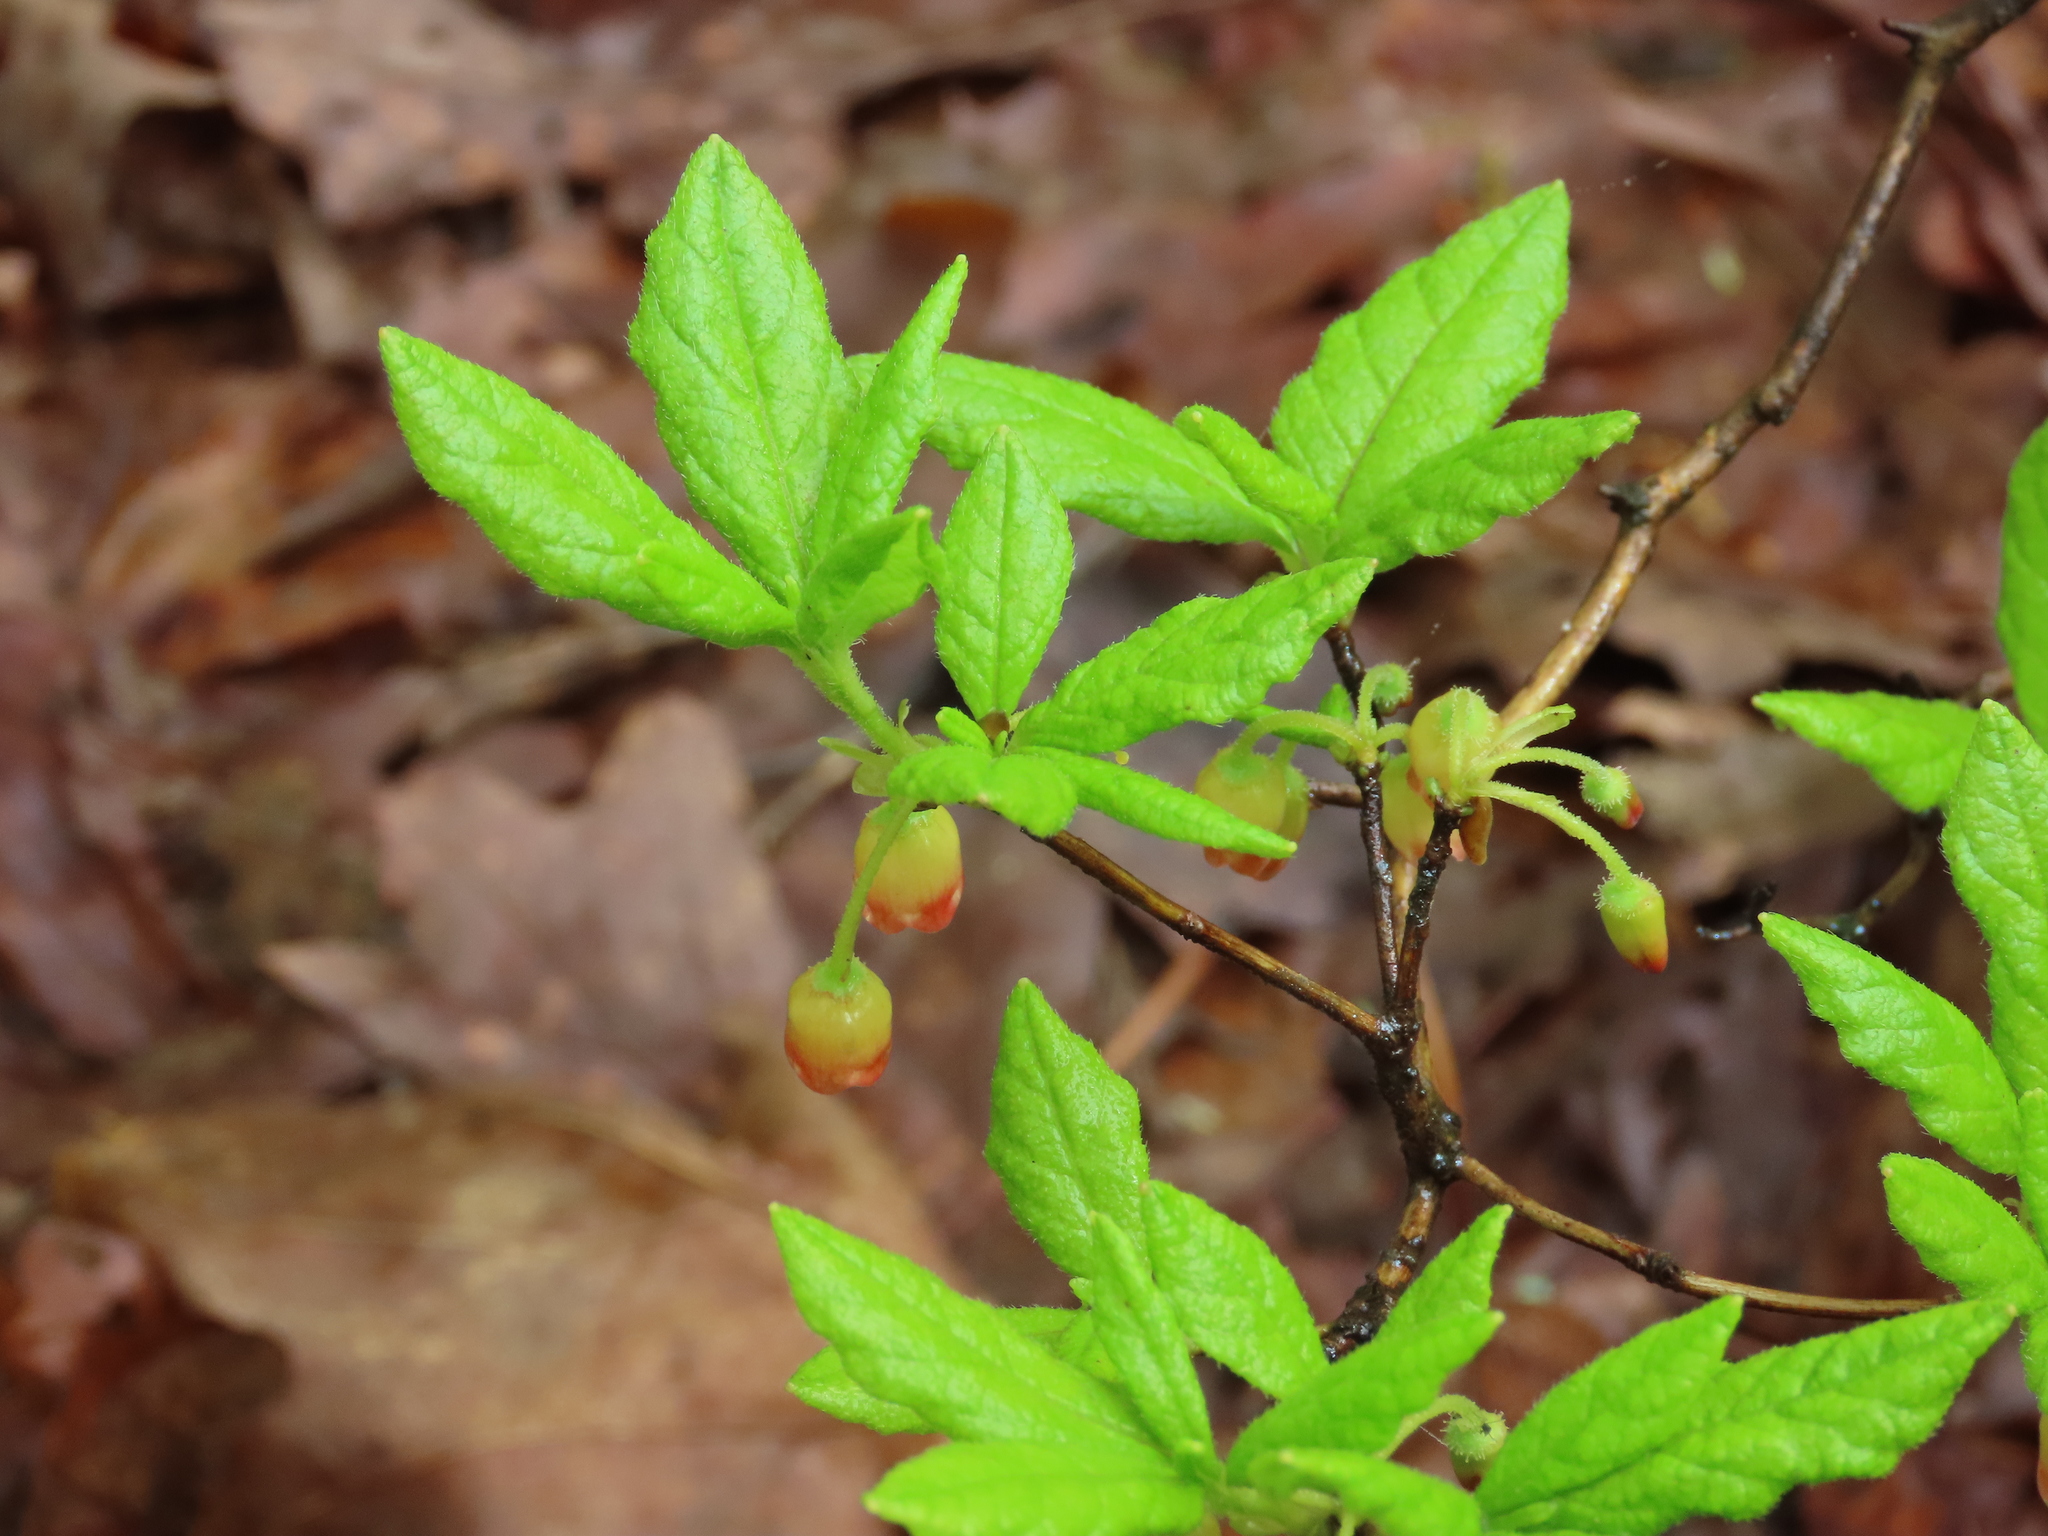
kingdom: Plantae
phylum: Tracheophyta
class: Magnoliopsida
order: Ericales
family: Ericaceae
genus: Rhododendron
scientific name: Rhododendron pilosum
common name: Hairy minniebush
